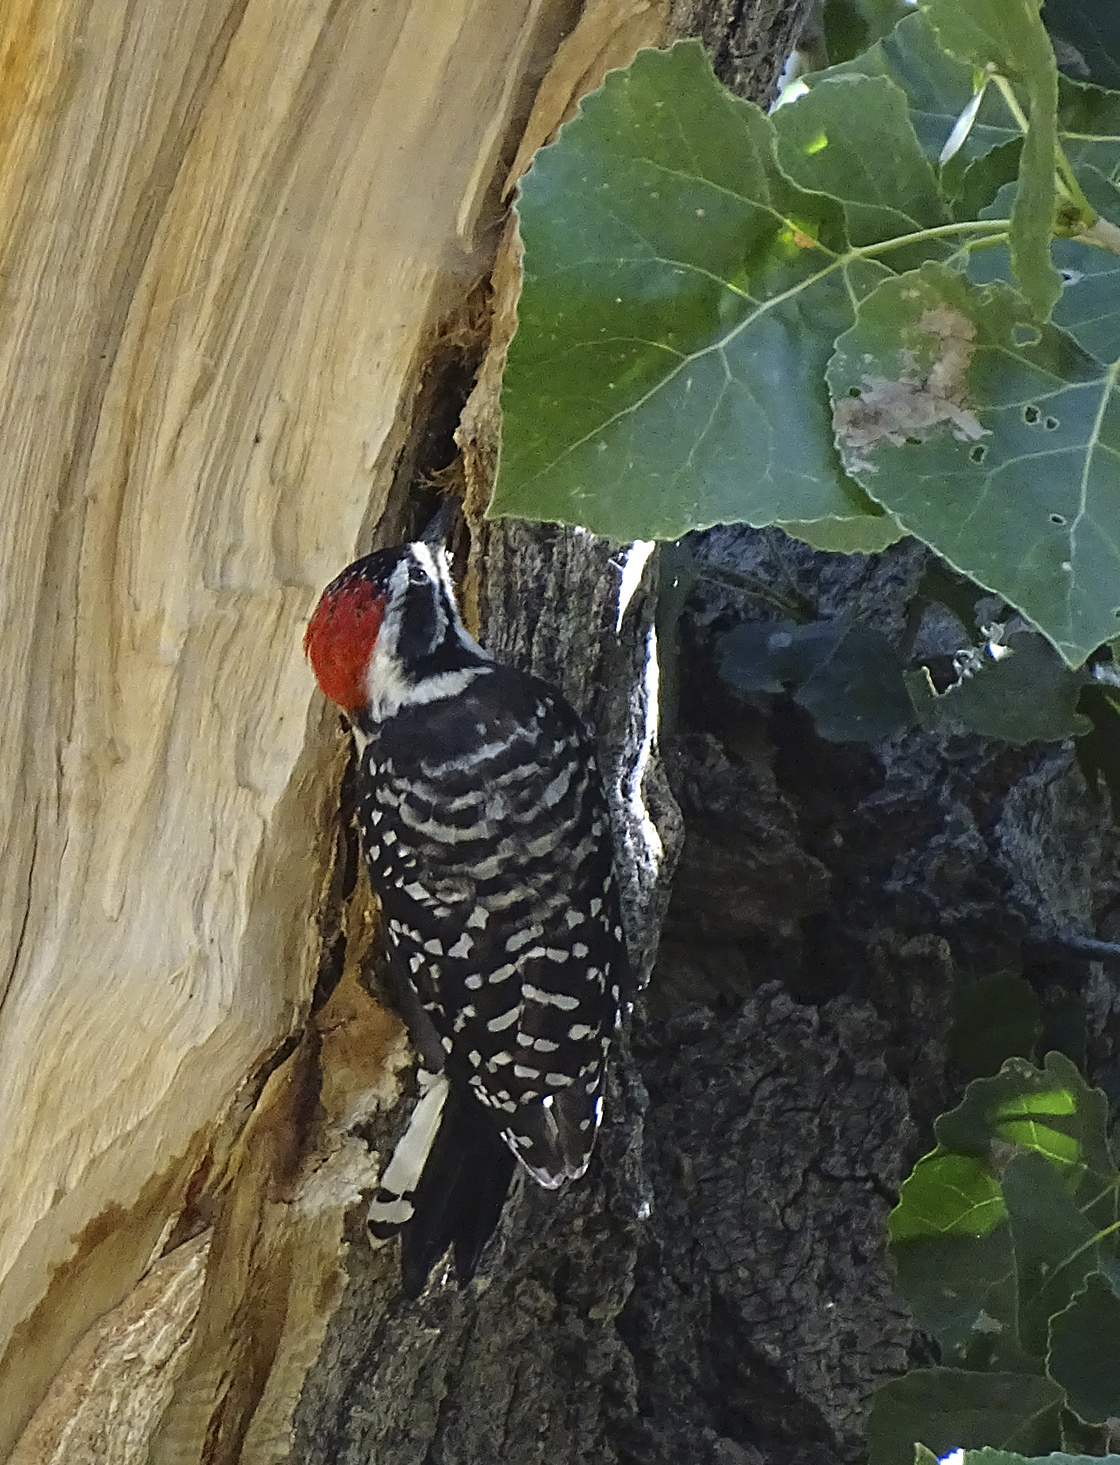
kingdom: Animalia
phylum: Chordata
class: Aves
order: Piciformes
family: Picidae
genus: Dryobates
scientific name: Dryobates nuttallii
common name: Nuttall's woodpecker
